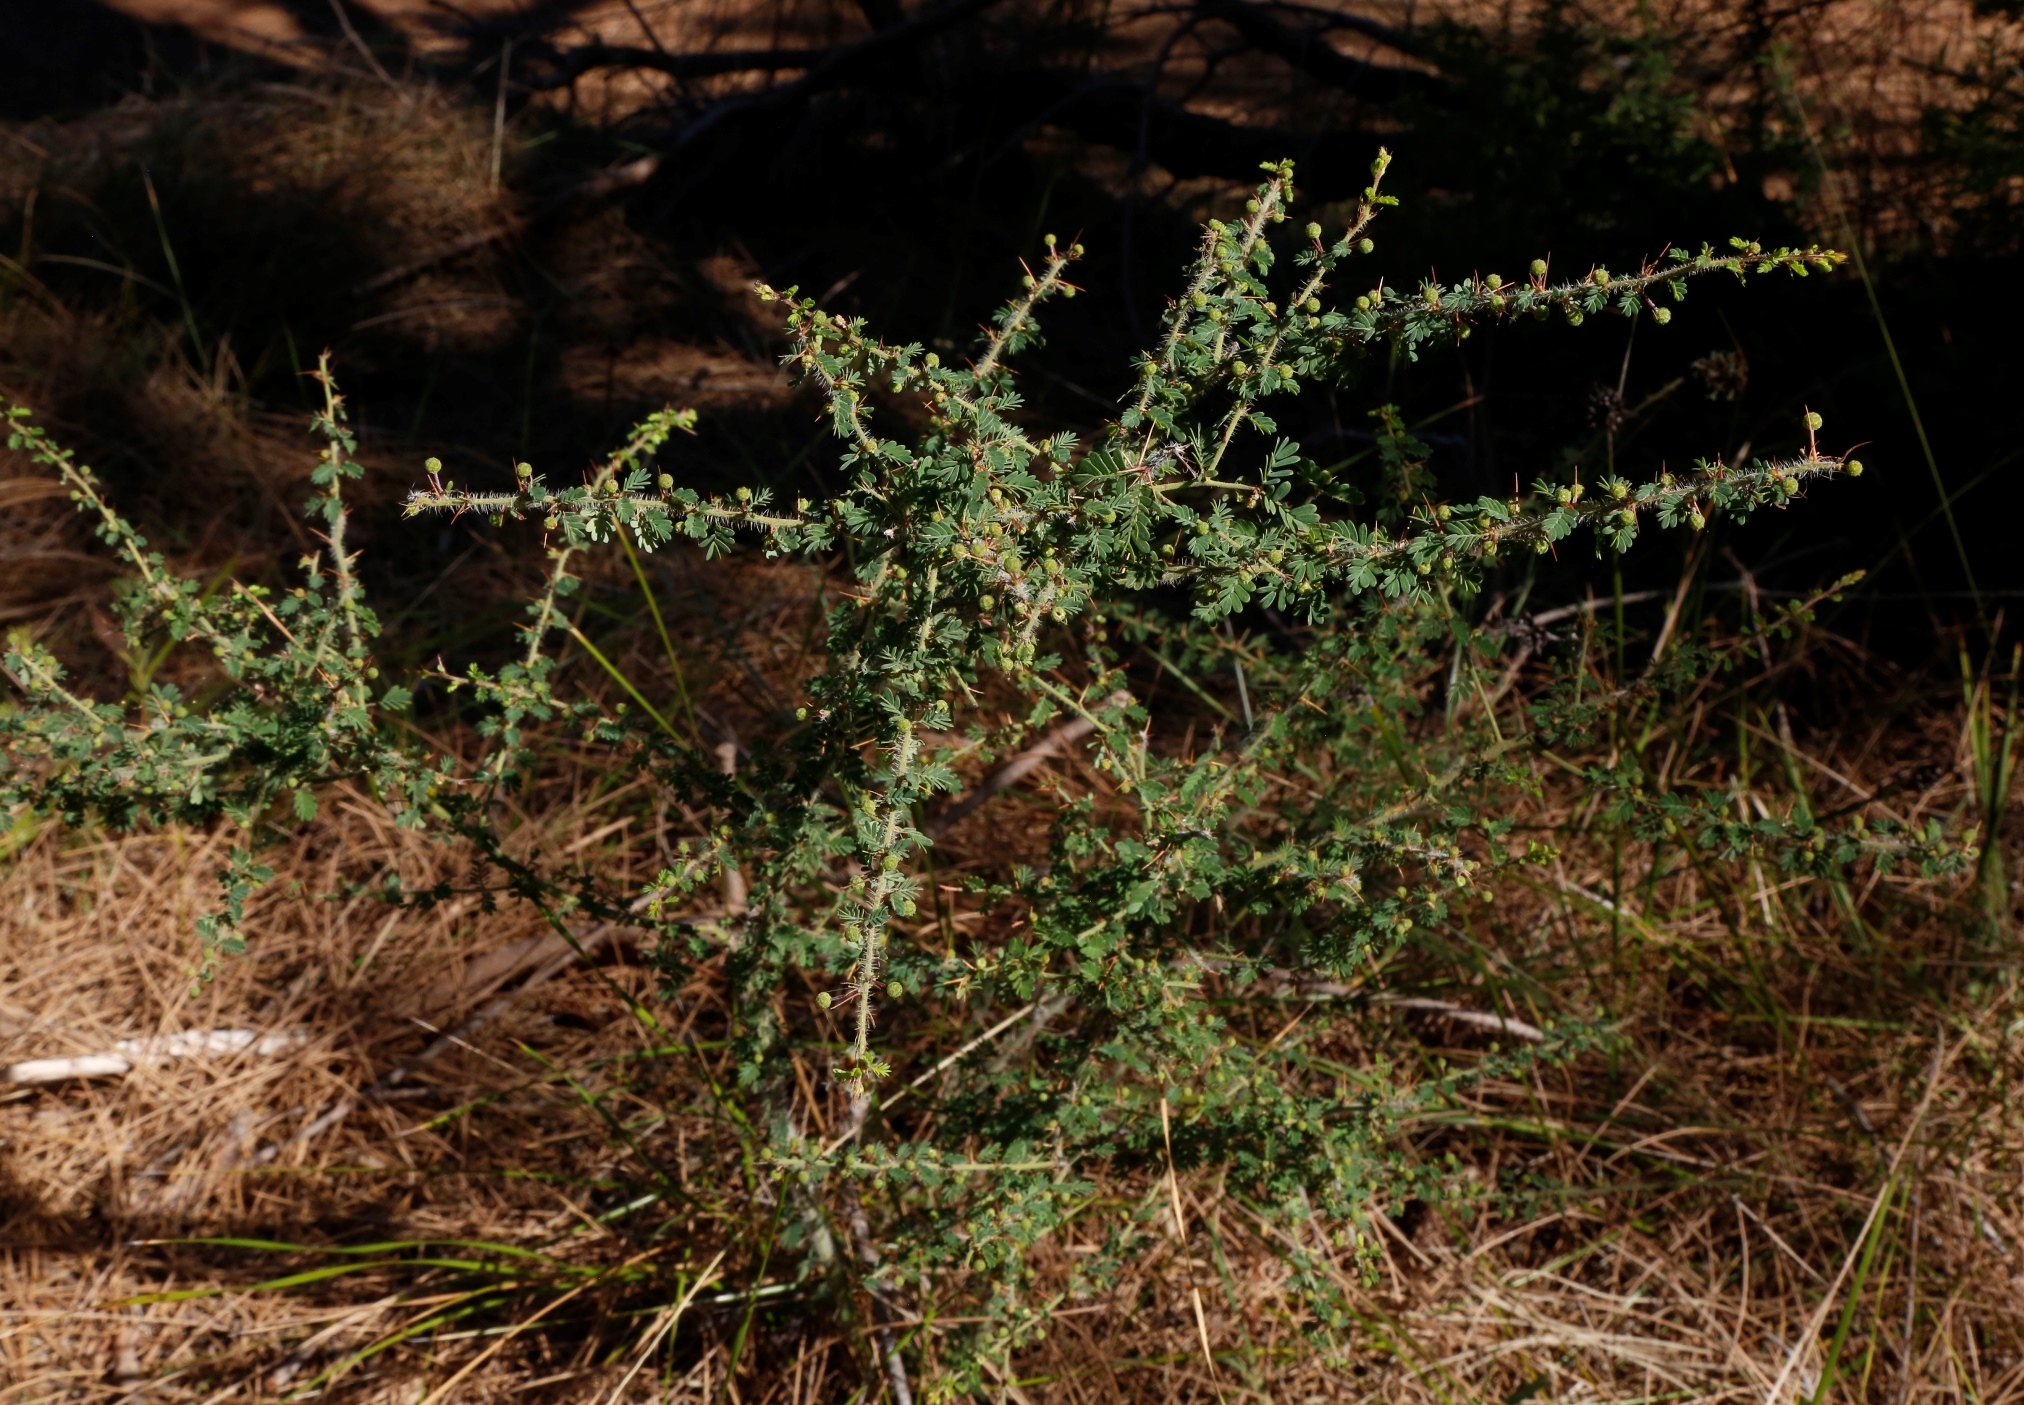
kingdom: Plantae
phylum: Tracheophyta
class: Magnoliopsida
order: Fabales
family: Fabaceae
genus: Acacia
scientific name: Acacia pulchella
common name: Prickly moses
